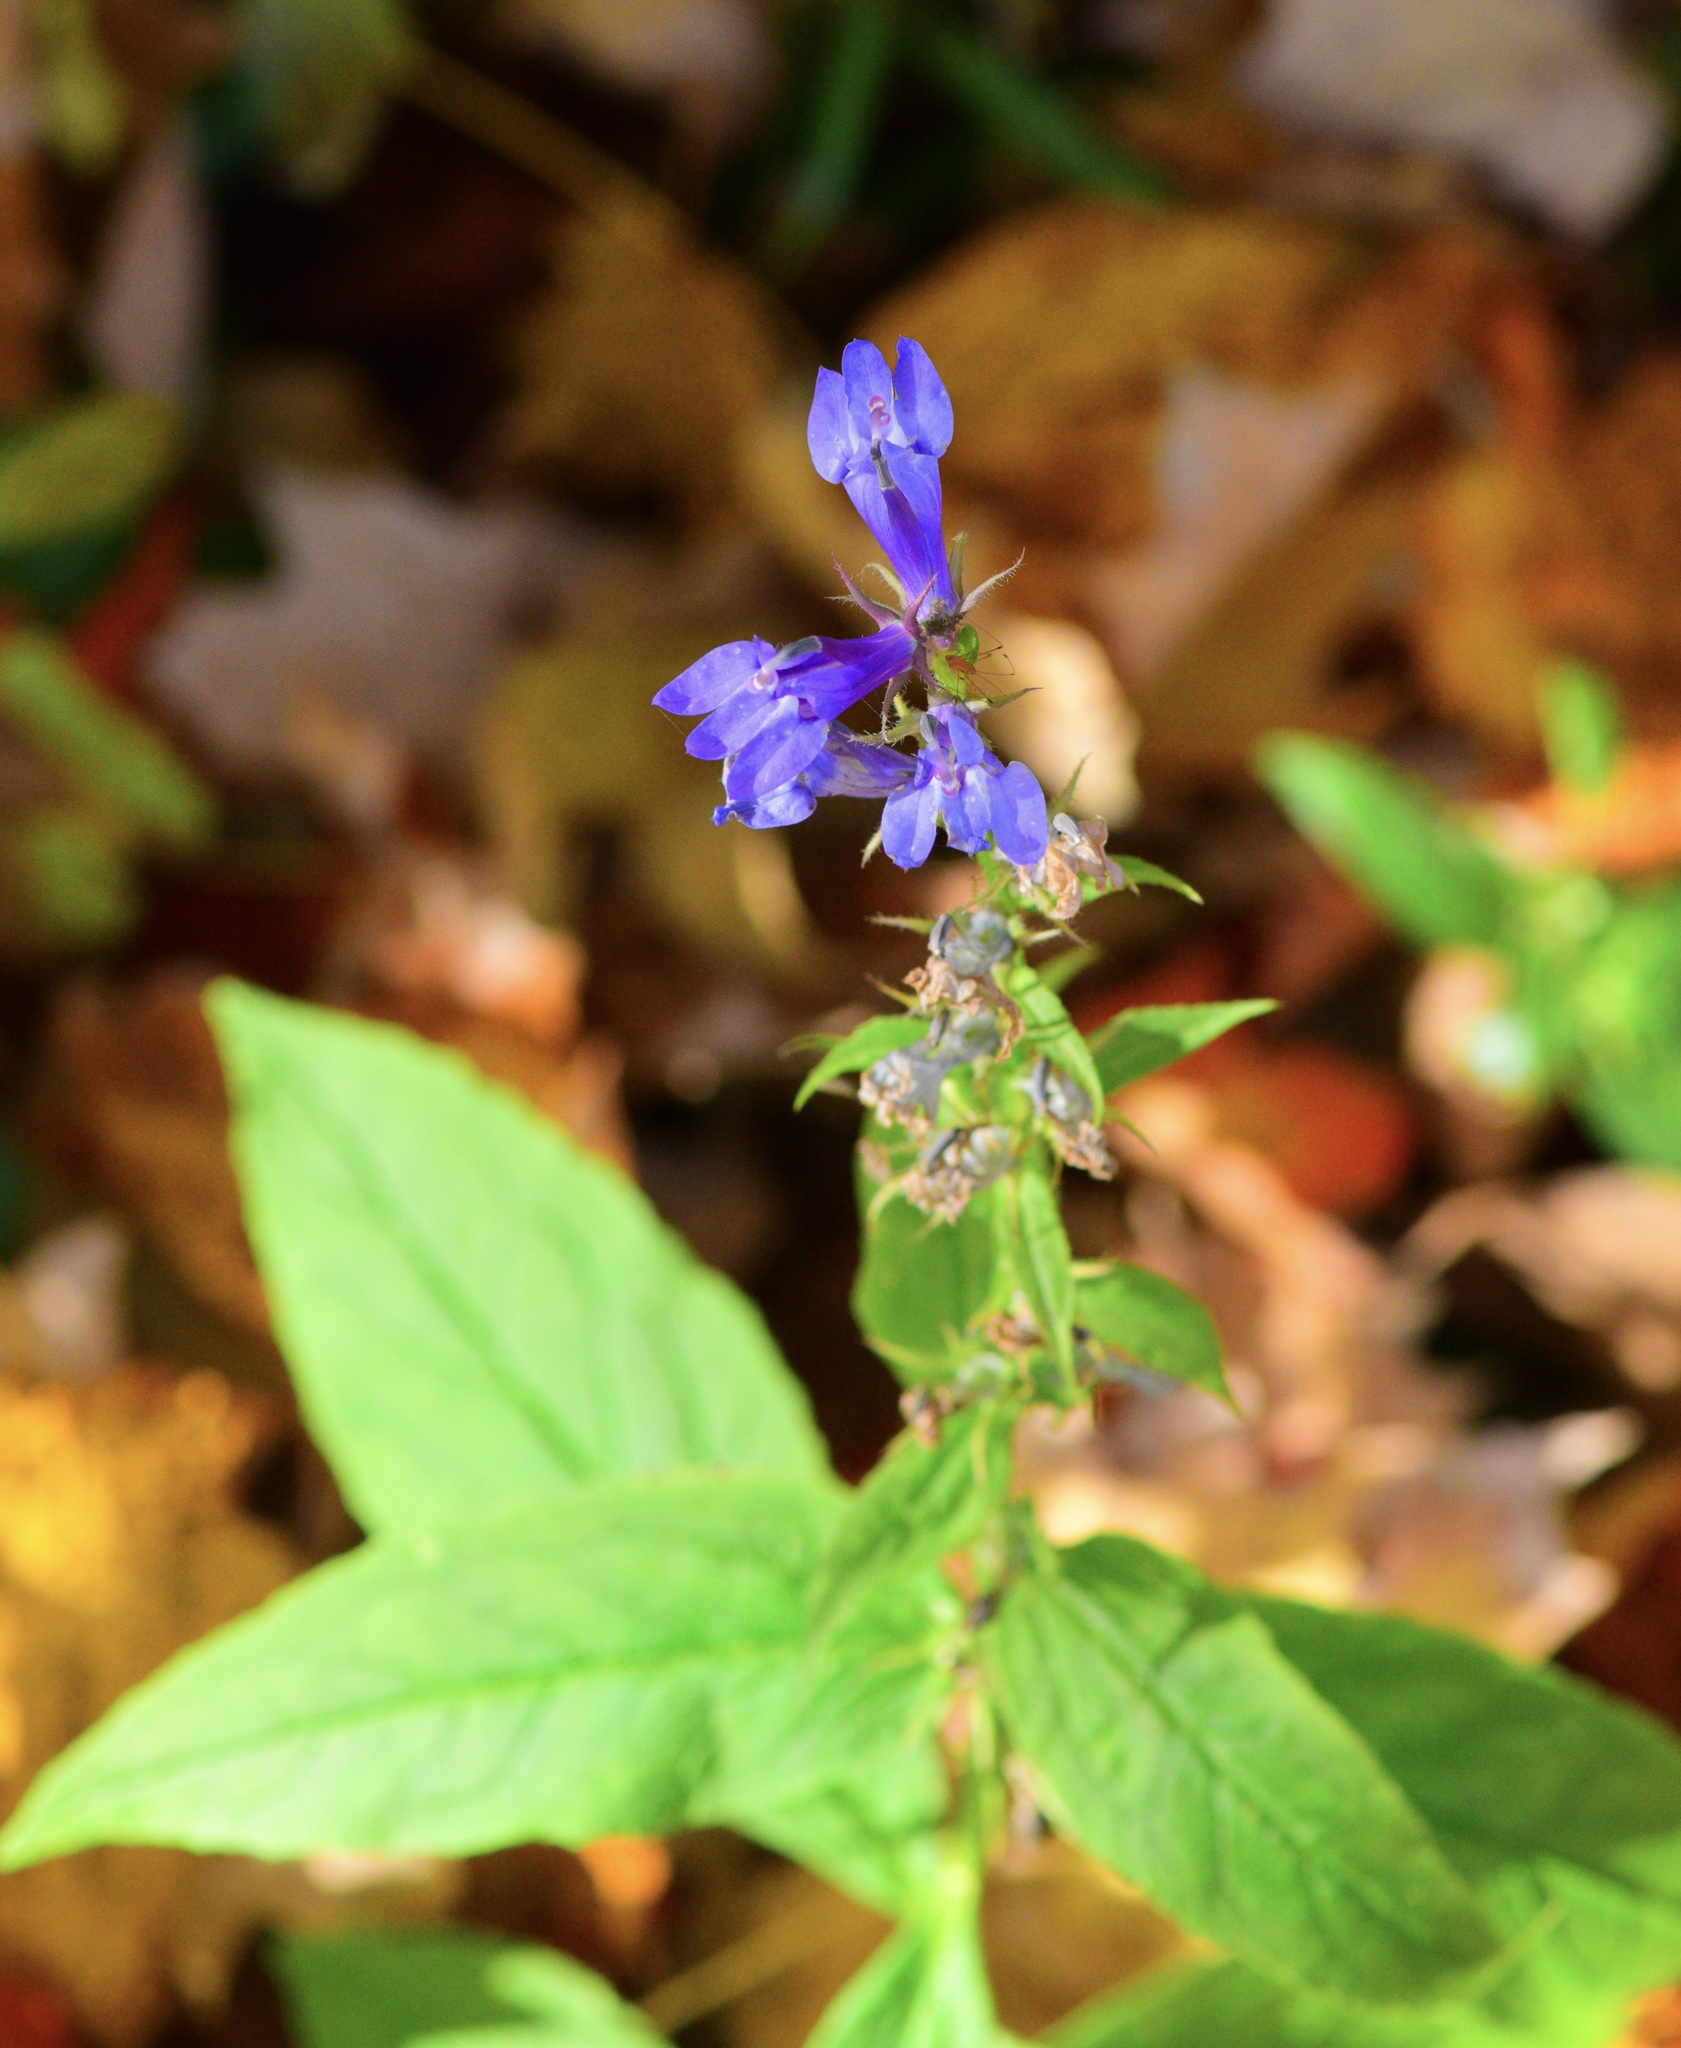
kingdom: Plantae
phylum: Tracheophyta
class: Magnoliopsida
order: Asterales
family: Campanulaceae
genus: Lobelia
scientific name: Lobelia siphilitica
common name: Great lobelia
